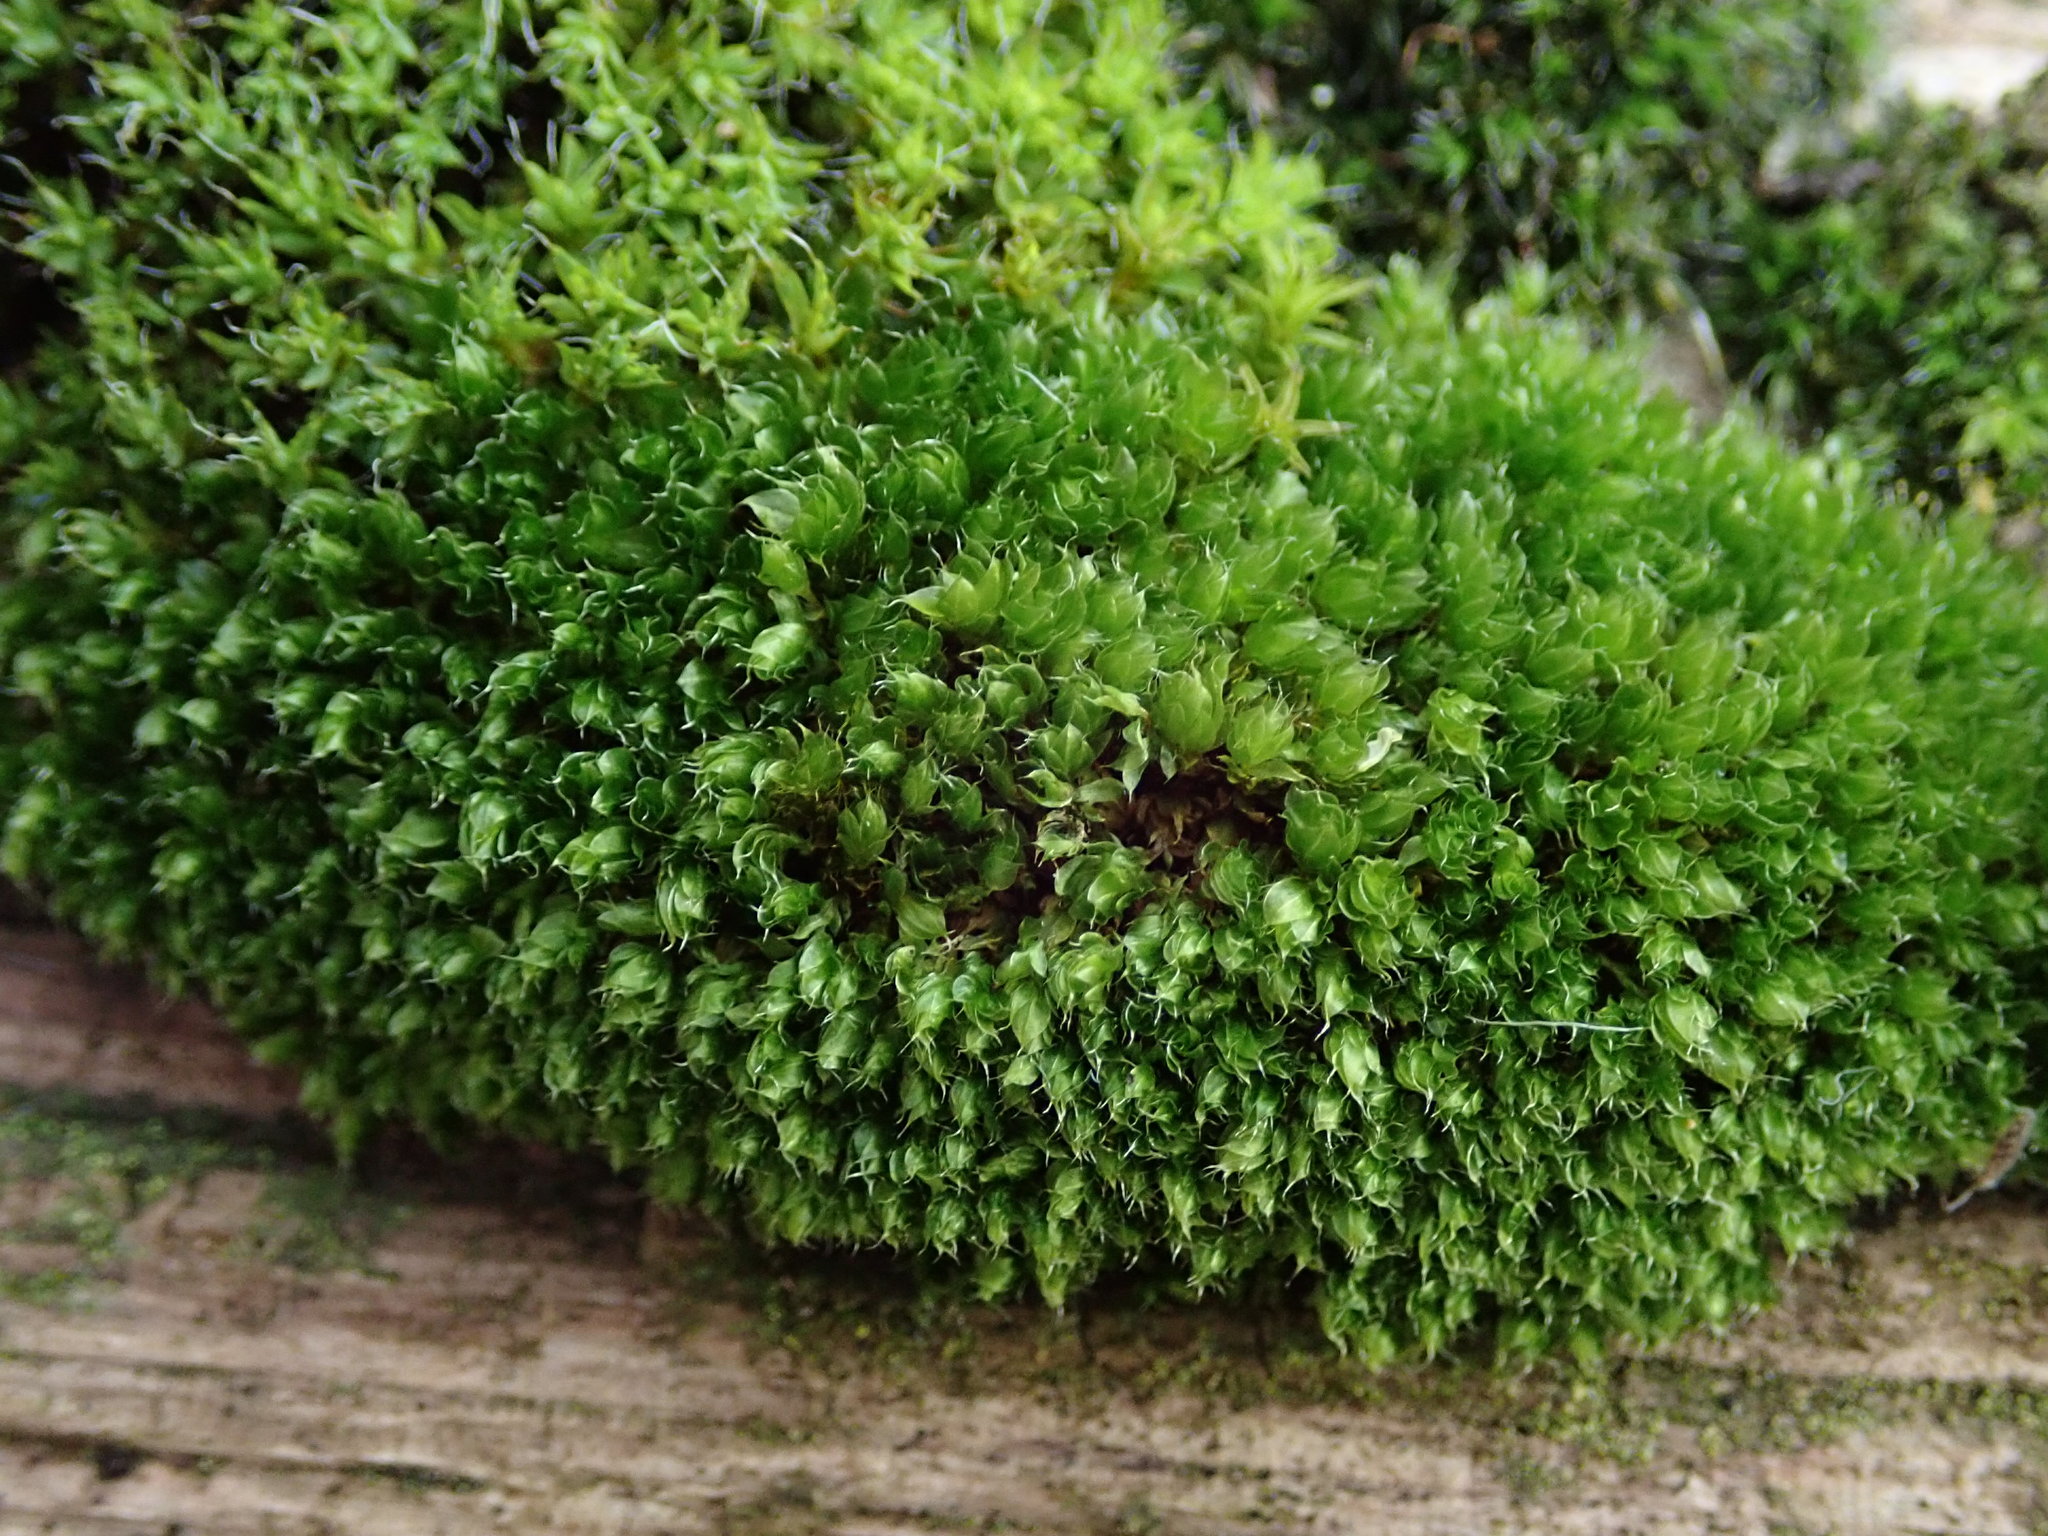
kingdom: Plantae
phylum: Bryophyta
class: Bryopsida
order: Bryales
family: Bryaceae
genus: Rosulabryum
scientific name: Rosulabryum capillare
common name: Capillary thread-moss
